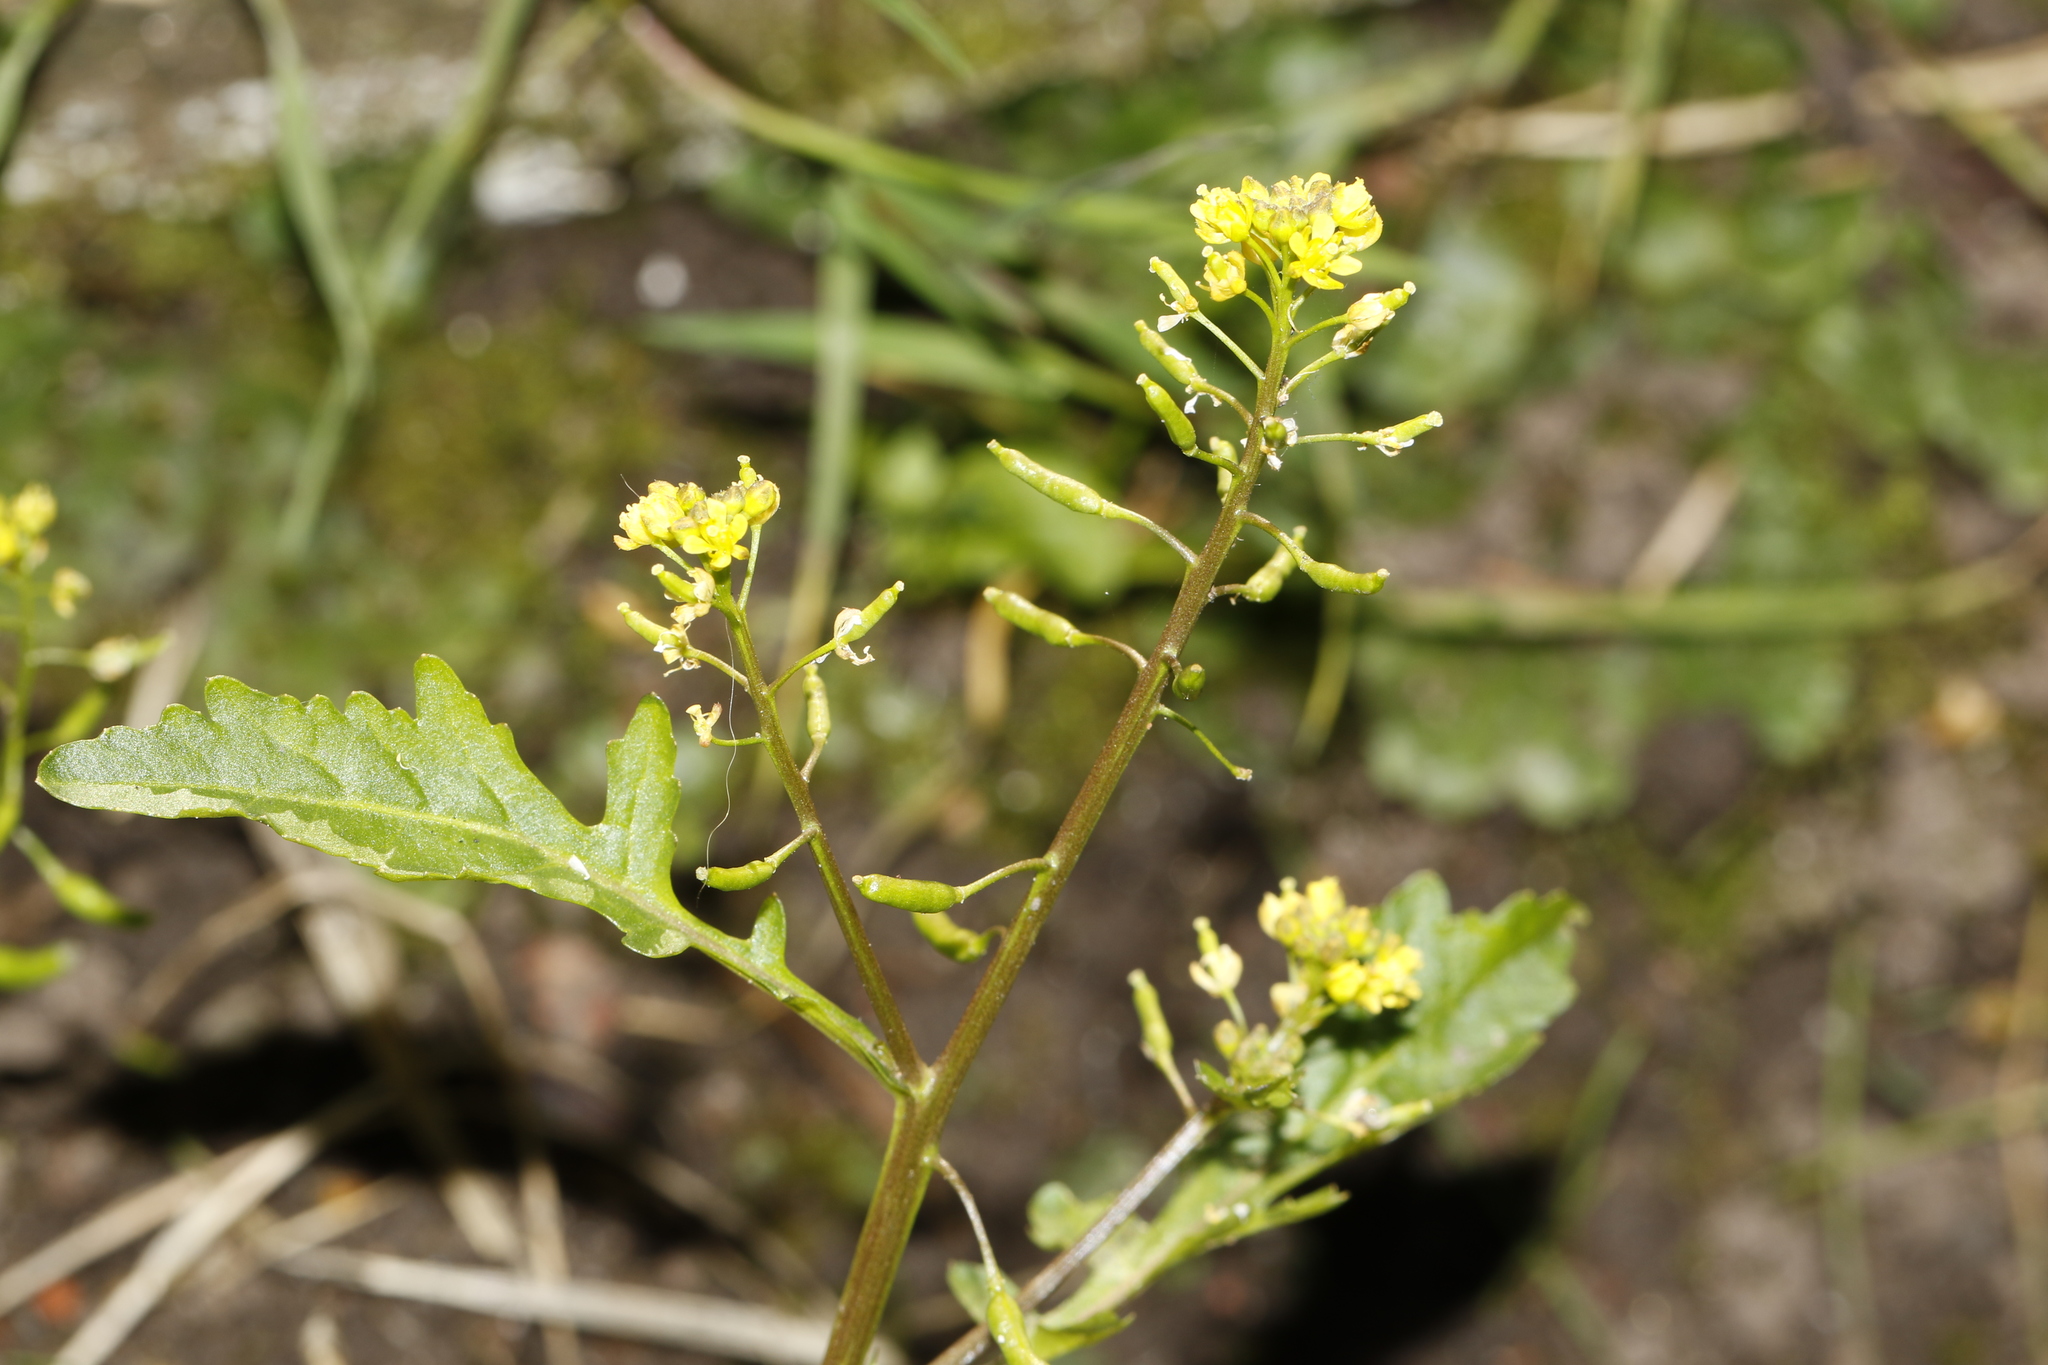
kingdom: Plantae
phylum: Tracheophyta
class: Magnoliopsida
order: Brassicales
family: Brassicaceae
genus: Rorippa
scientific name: Rorippa palustris
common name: Marsh yellow-cress
